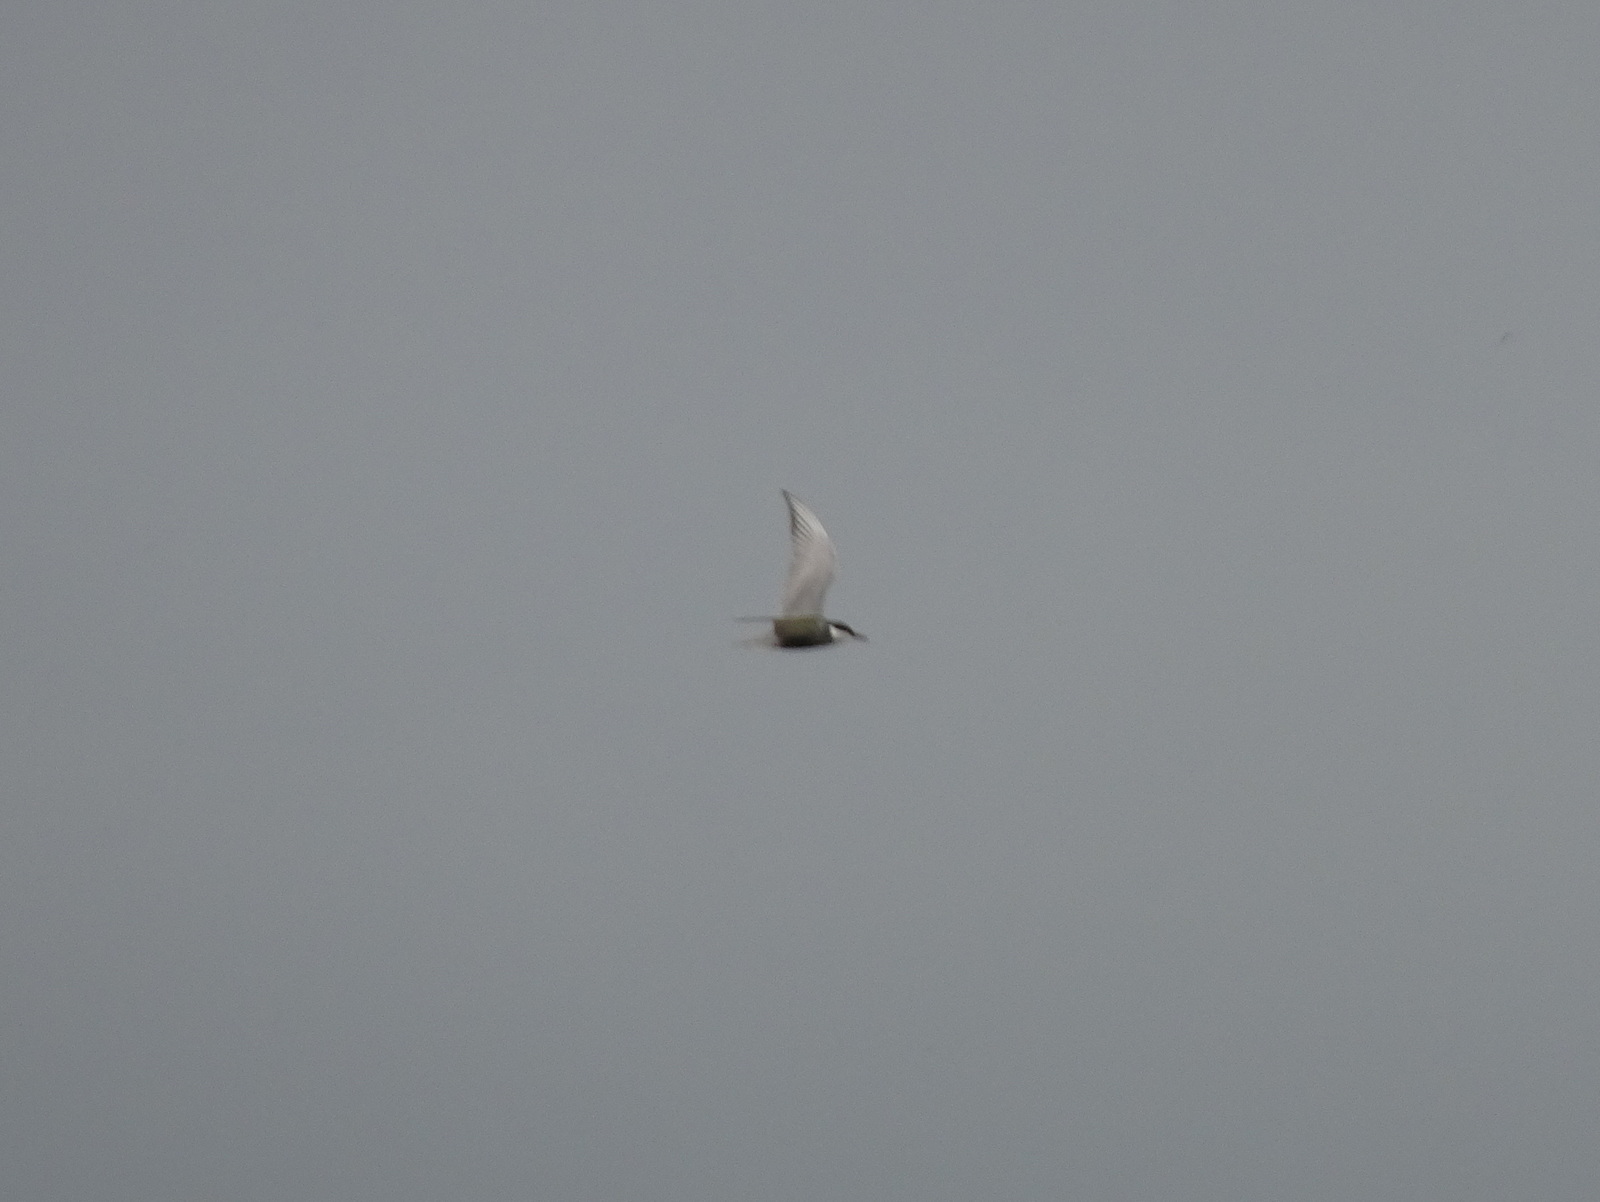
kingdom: Animalia
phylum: Chordata
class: Aves
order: Charadriiformes
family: Laridae
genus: Chlidonias
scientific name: Chlidonias hybrida
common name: Whiskered tern
